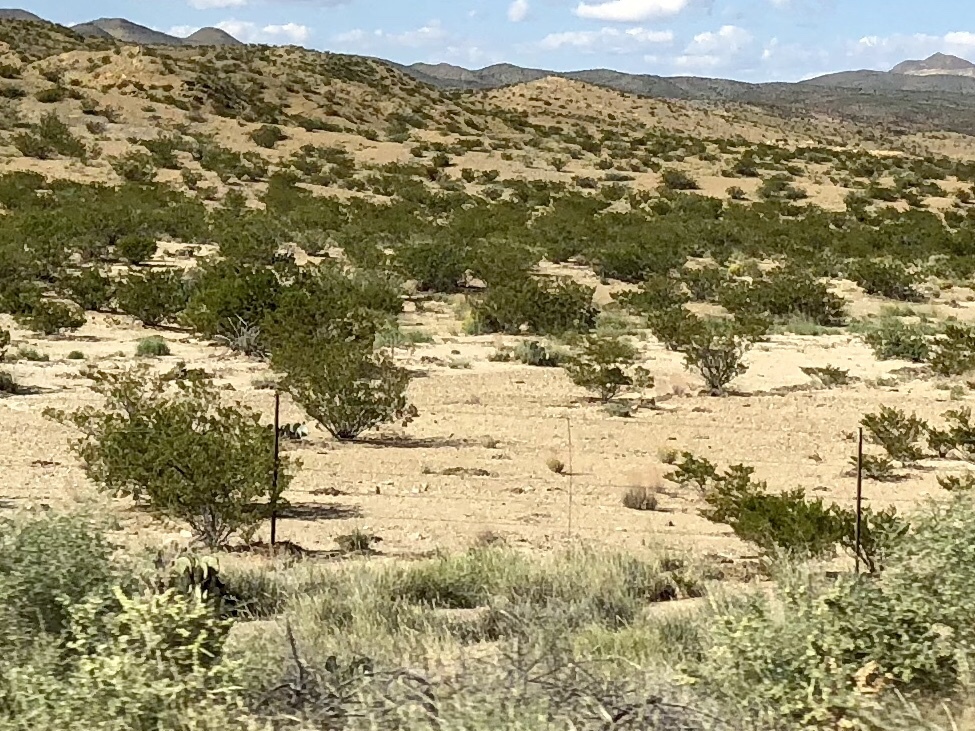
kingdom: Plantae
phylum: Tracheophyta
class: Magnoliopsida
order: Zygophyllales
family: Zygophyllaceae
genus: Larrea
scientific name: Larrea tridentata
